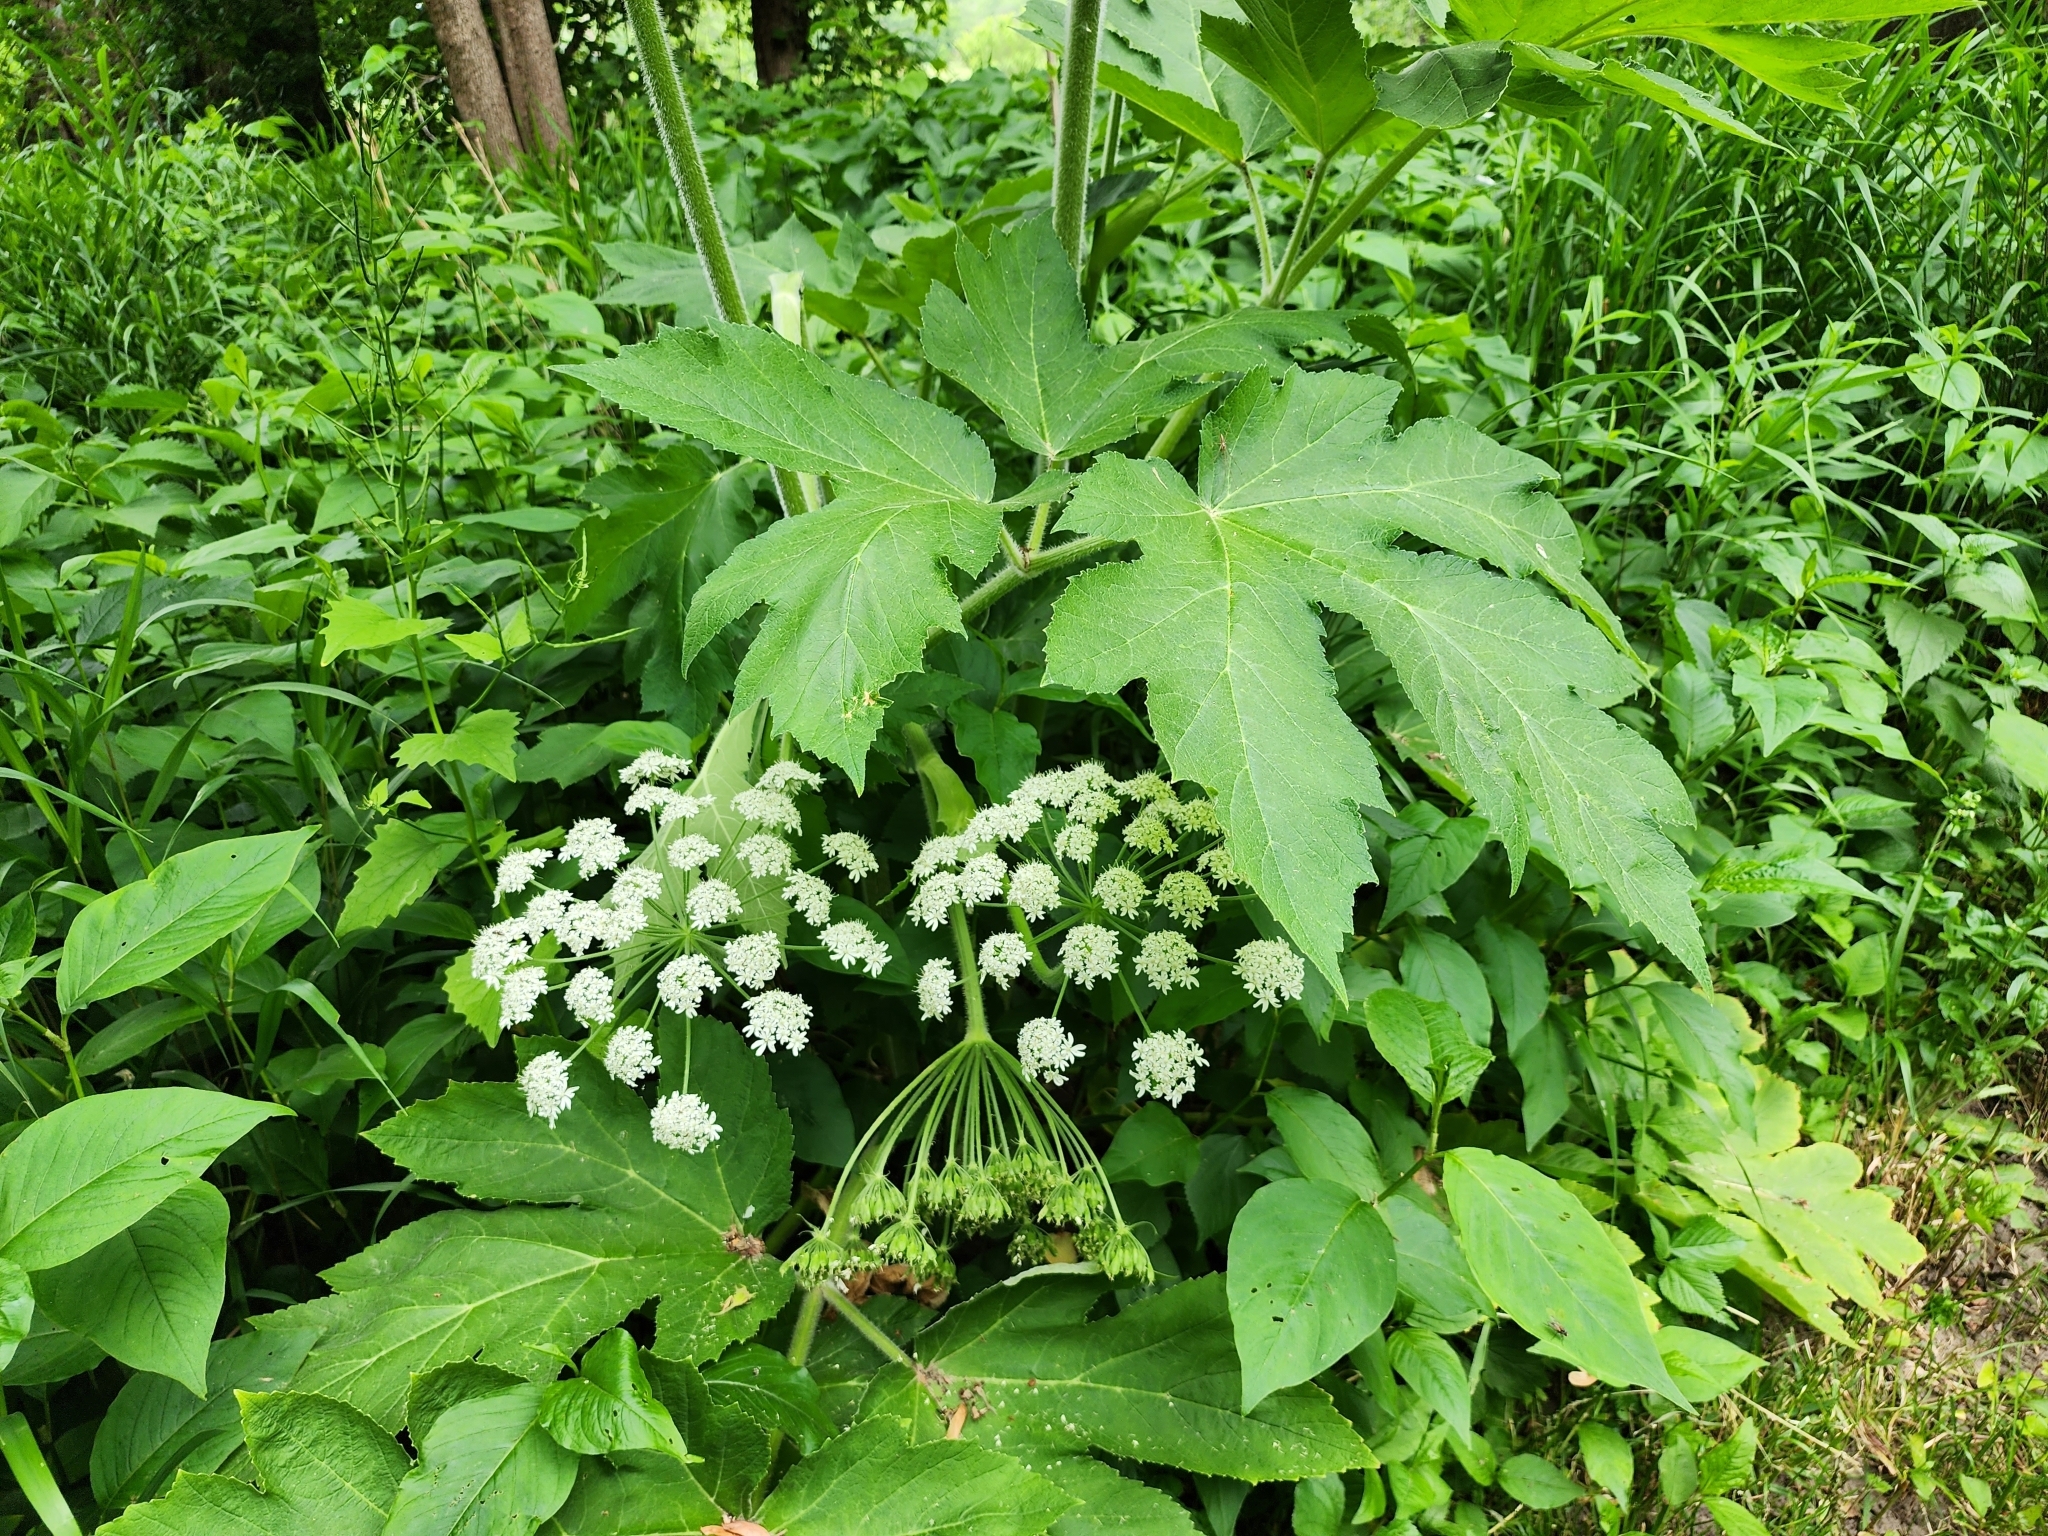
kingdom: Plantae
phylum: Tracheophyta
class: Magnoliopsida
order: Apiales
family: Apiaceae
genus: Heracleum
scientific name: Heracleum maximum
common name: American cow parsnip
